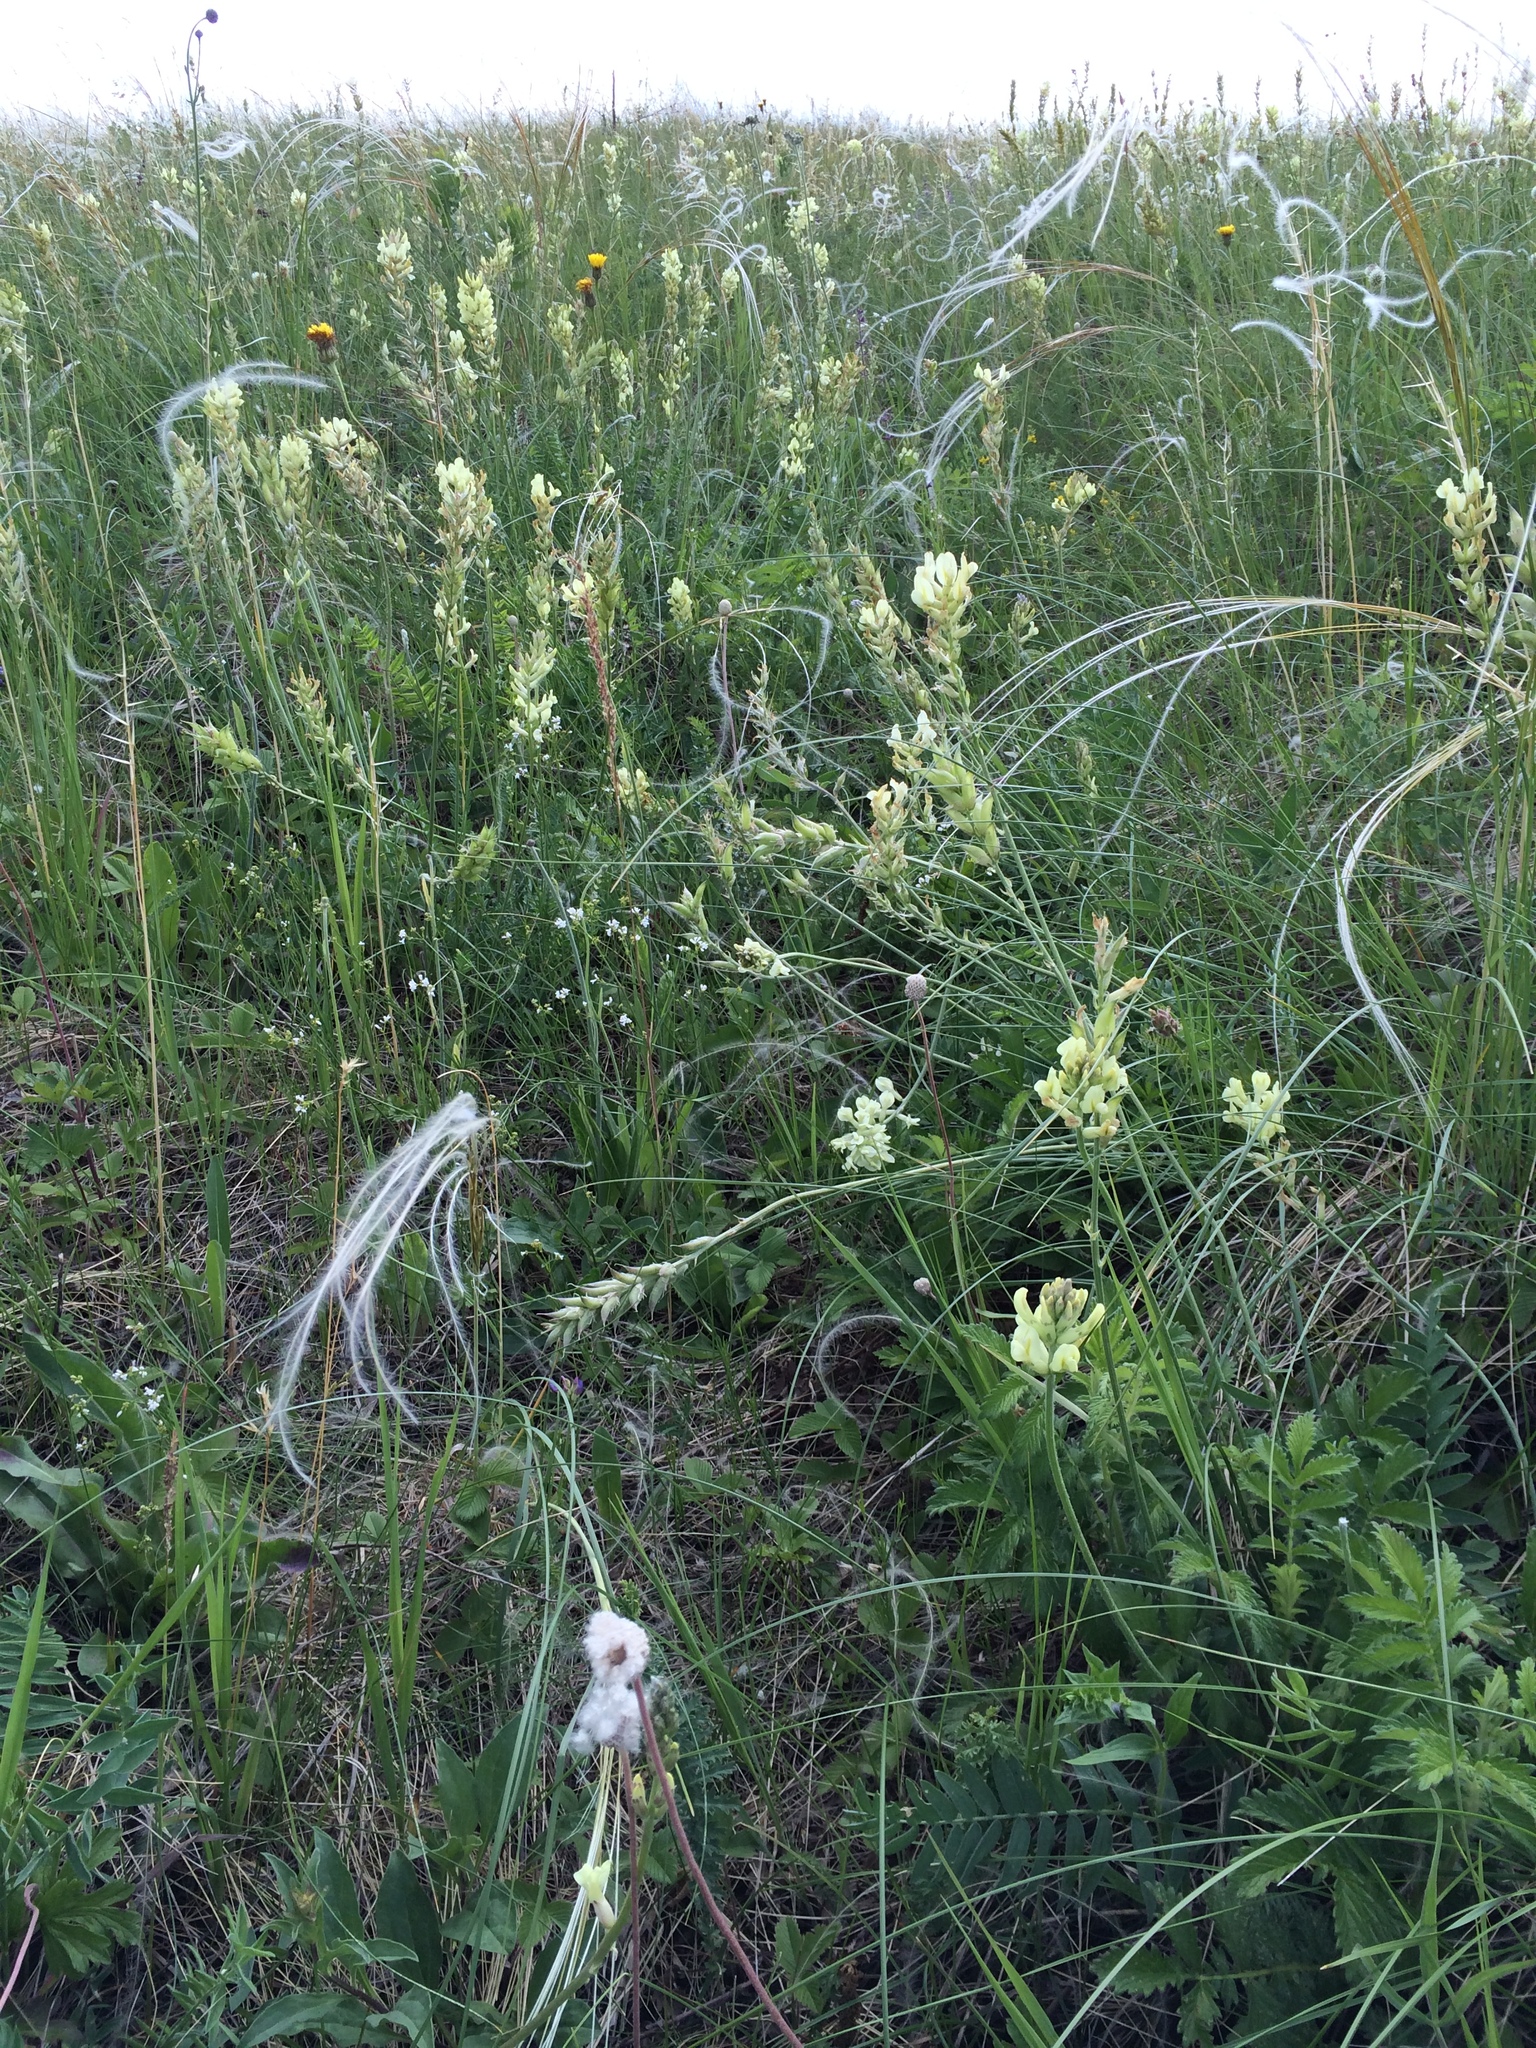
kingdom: Plantae
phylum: Tracheophyta
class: Magnoliopsida
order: Fabales
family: Fabaceae
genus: Oxytropis
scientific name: Oxytropis hippolyti
